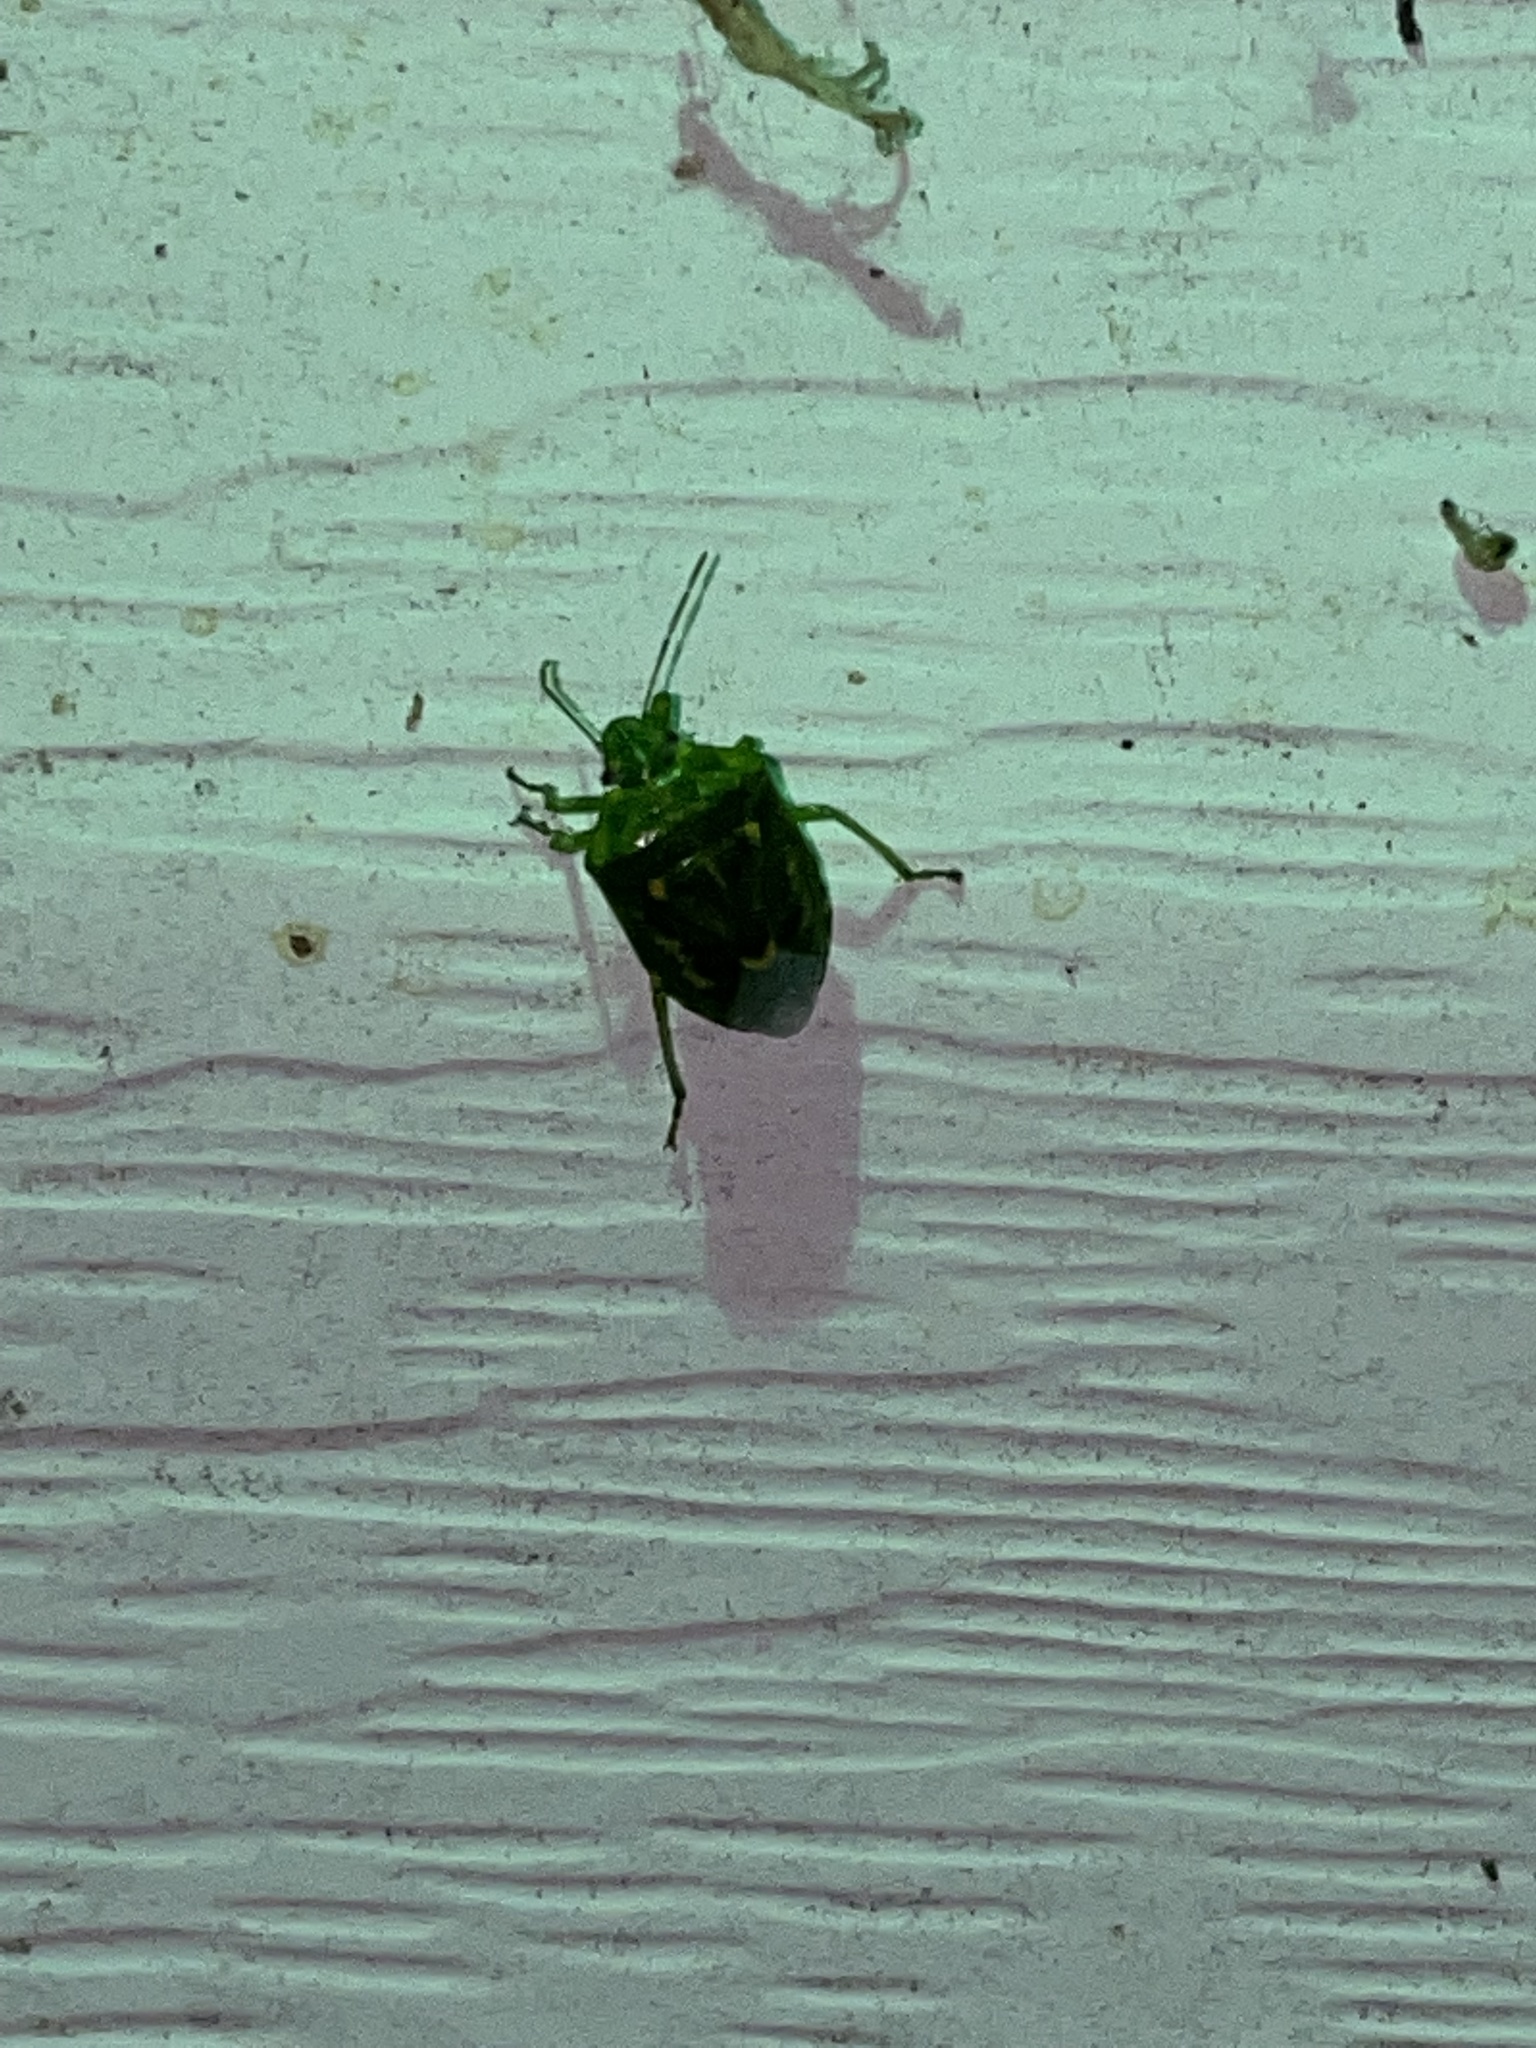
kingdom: Animalia
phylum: Arthropoda
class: Insecta
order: Hemiptera
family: Pentatomidae
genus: Banasa
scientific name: Banasa euchlora
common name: Cedar berry bug
